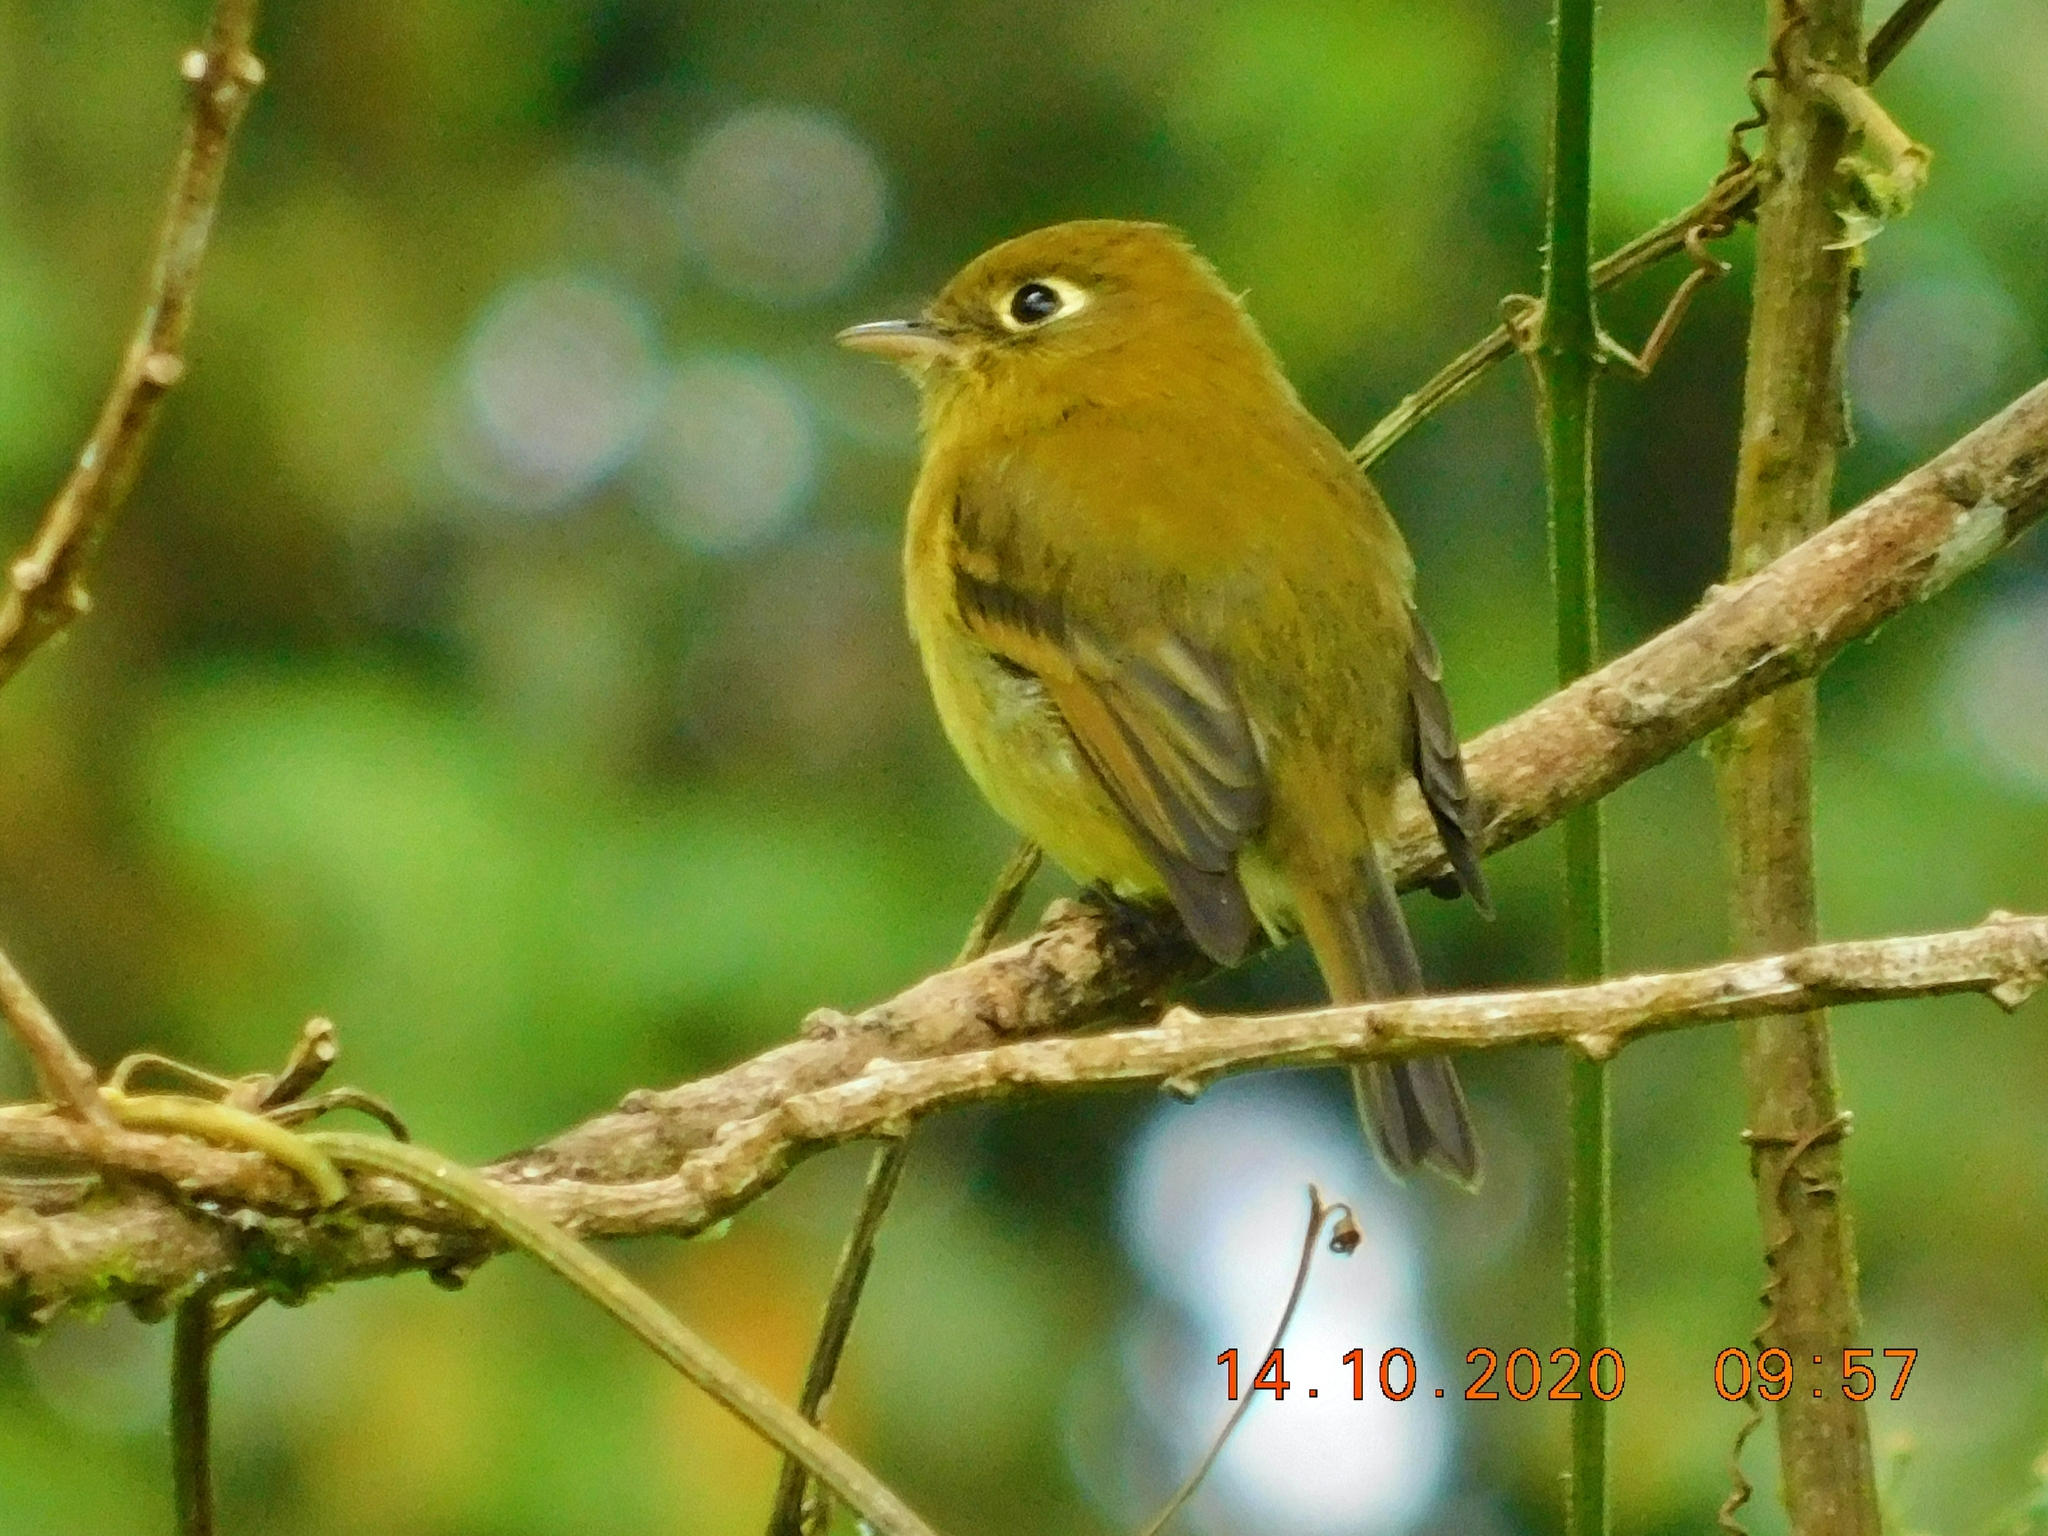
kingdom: Animalia
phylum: Chordata
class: Aves
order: Passeriformes
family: Tyrannidae
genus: Empidonax
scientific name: Empidonax flavescens
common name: Yellowish flycatcher
